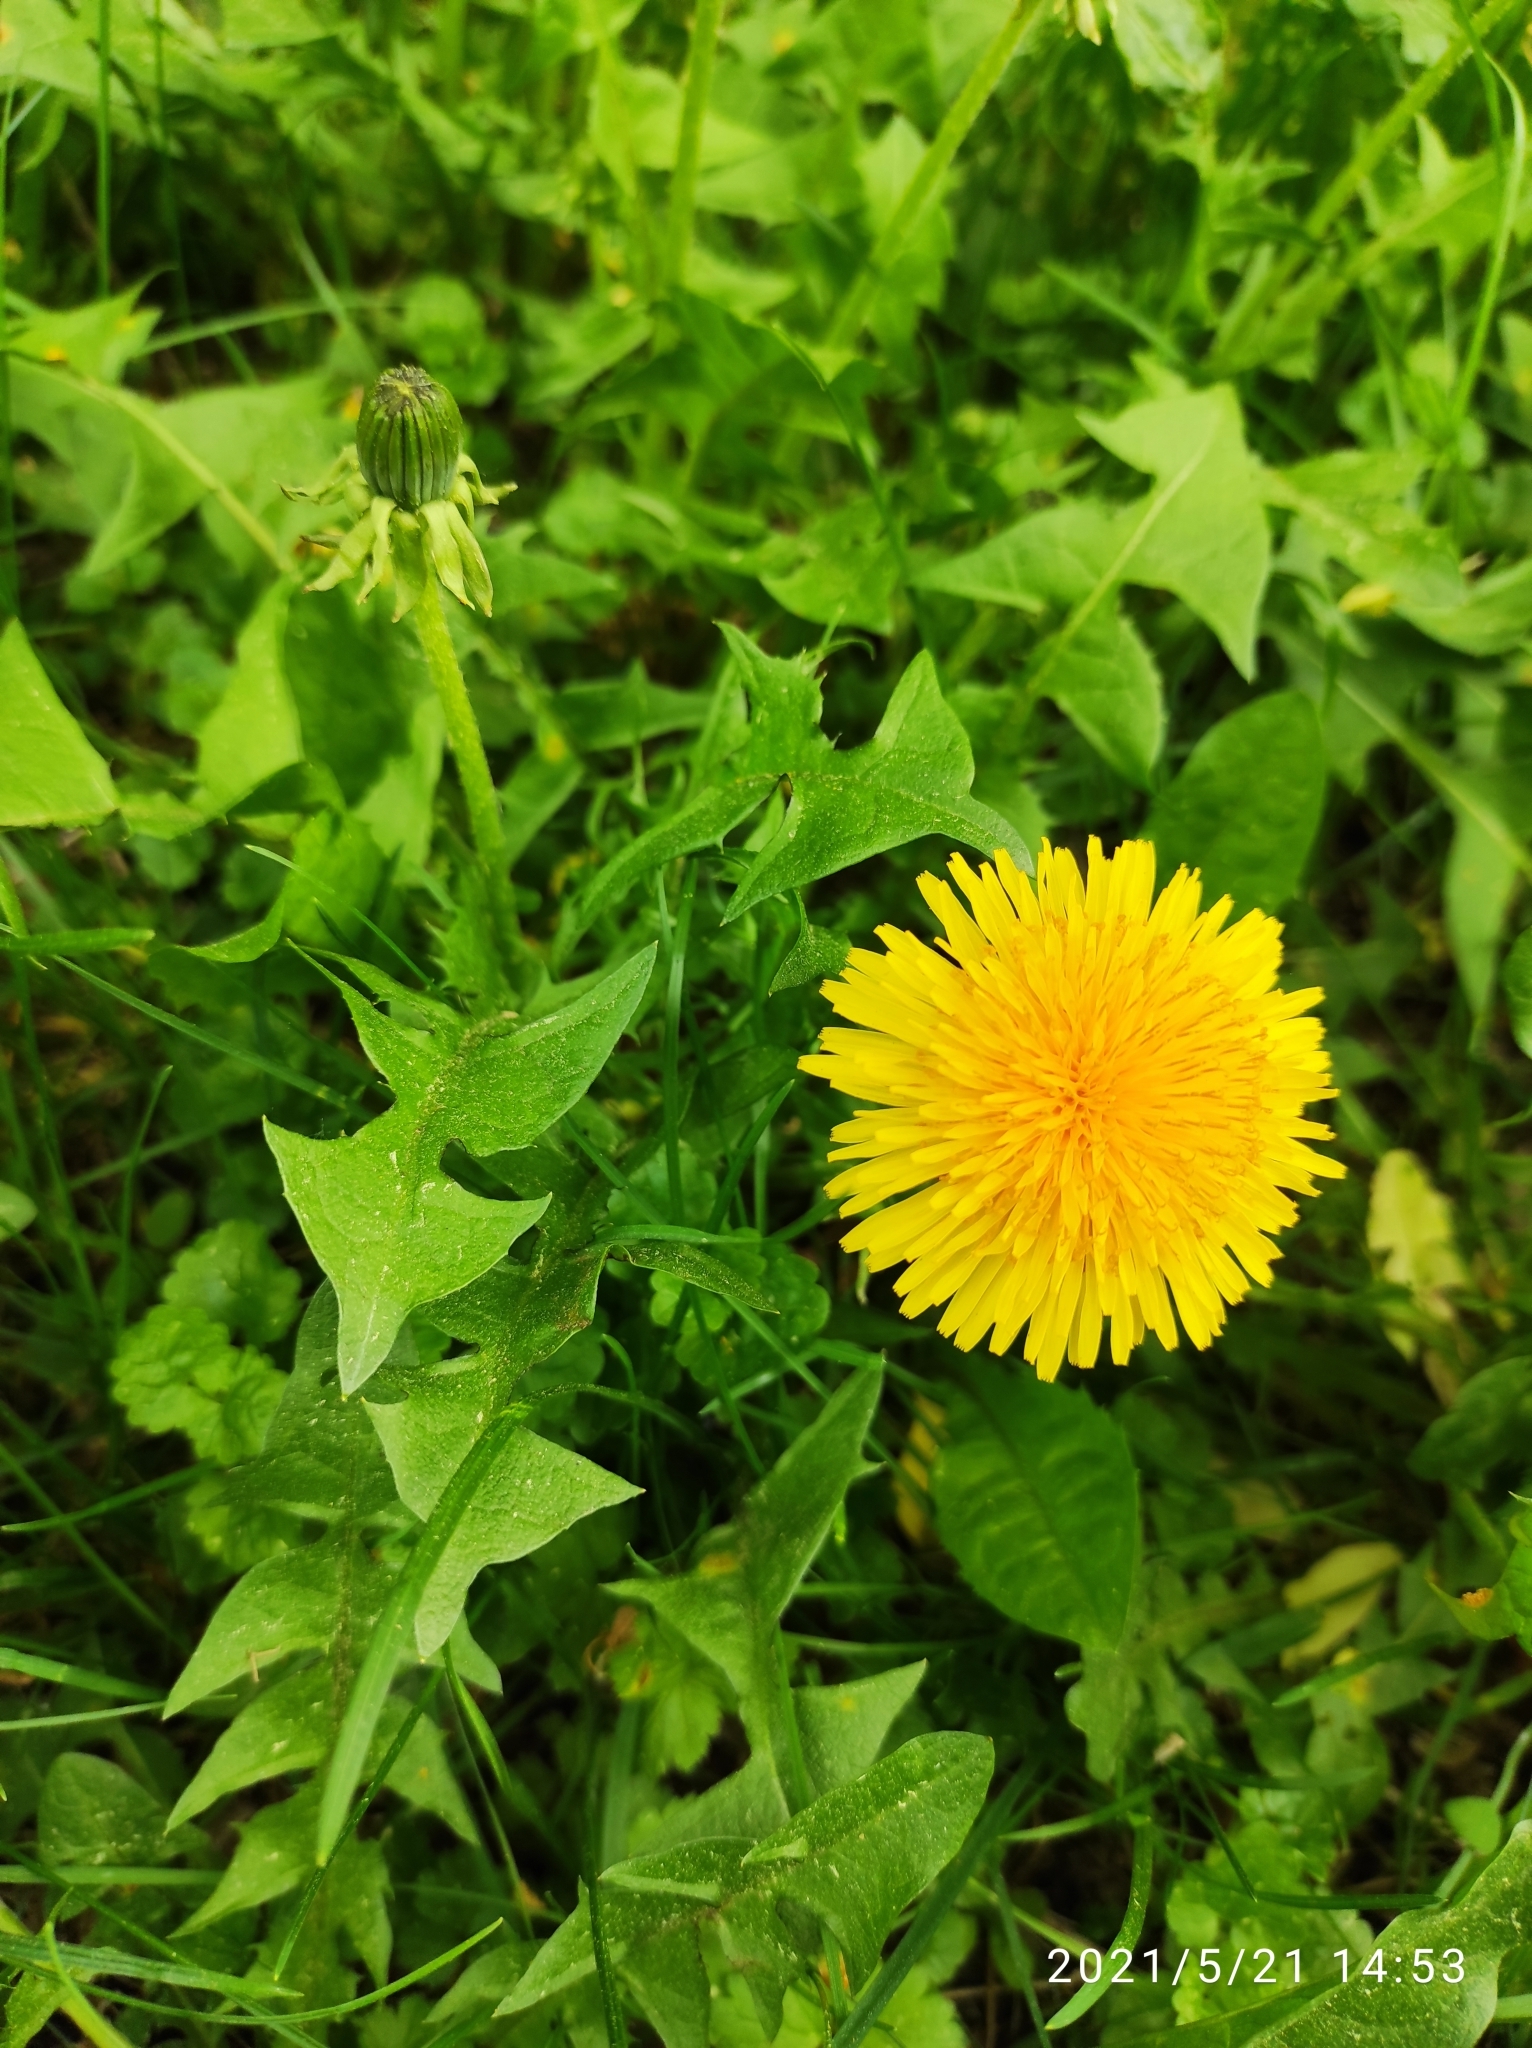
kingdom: Plantae
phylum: Tracheophyta
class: Magnoliopsida
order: Asterales
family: Asteraceae
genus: Taraxacum
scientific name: Taraxacum officinale
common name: Common dandelion
